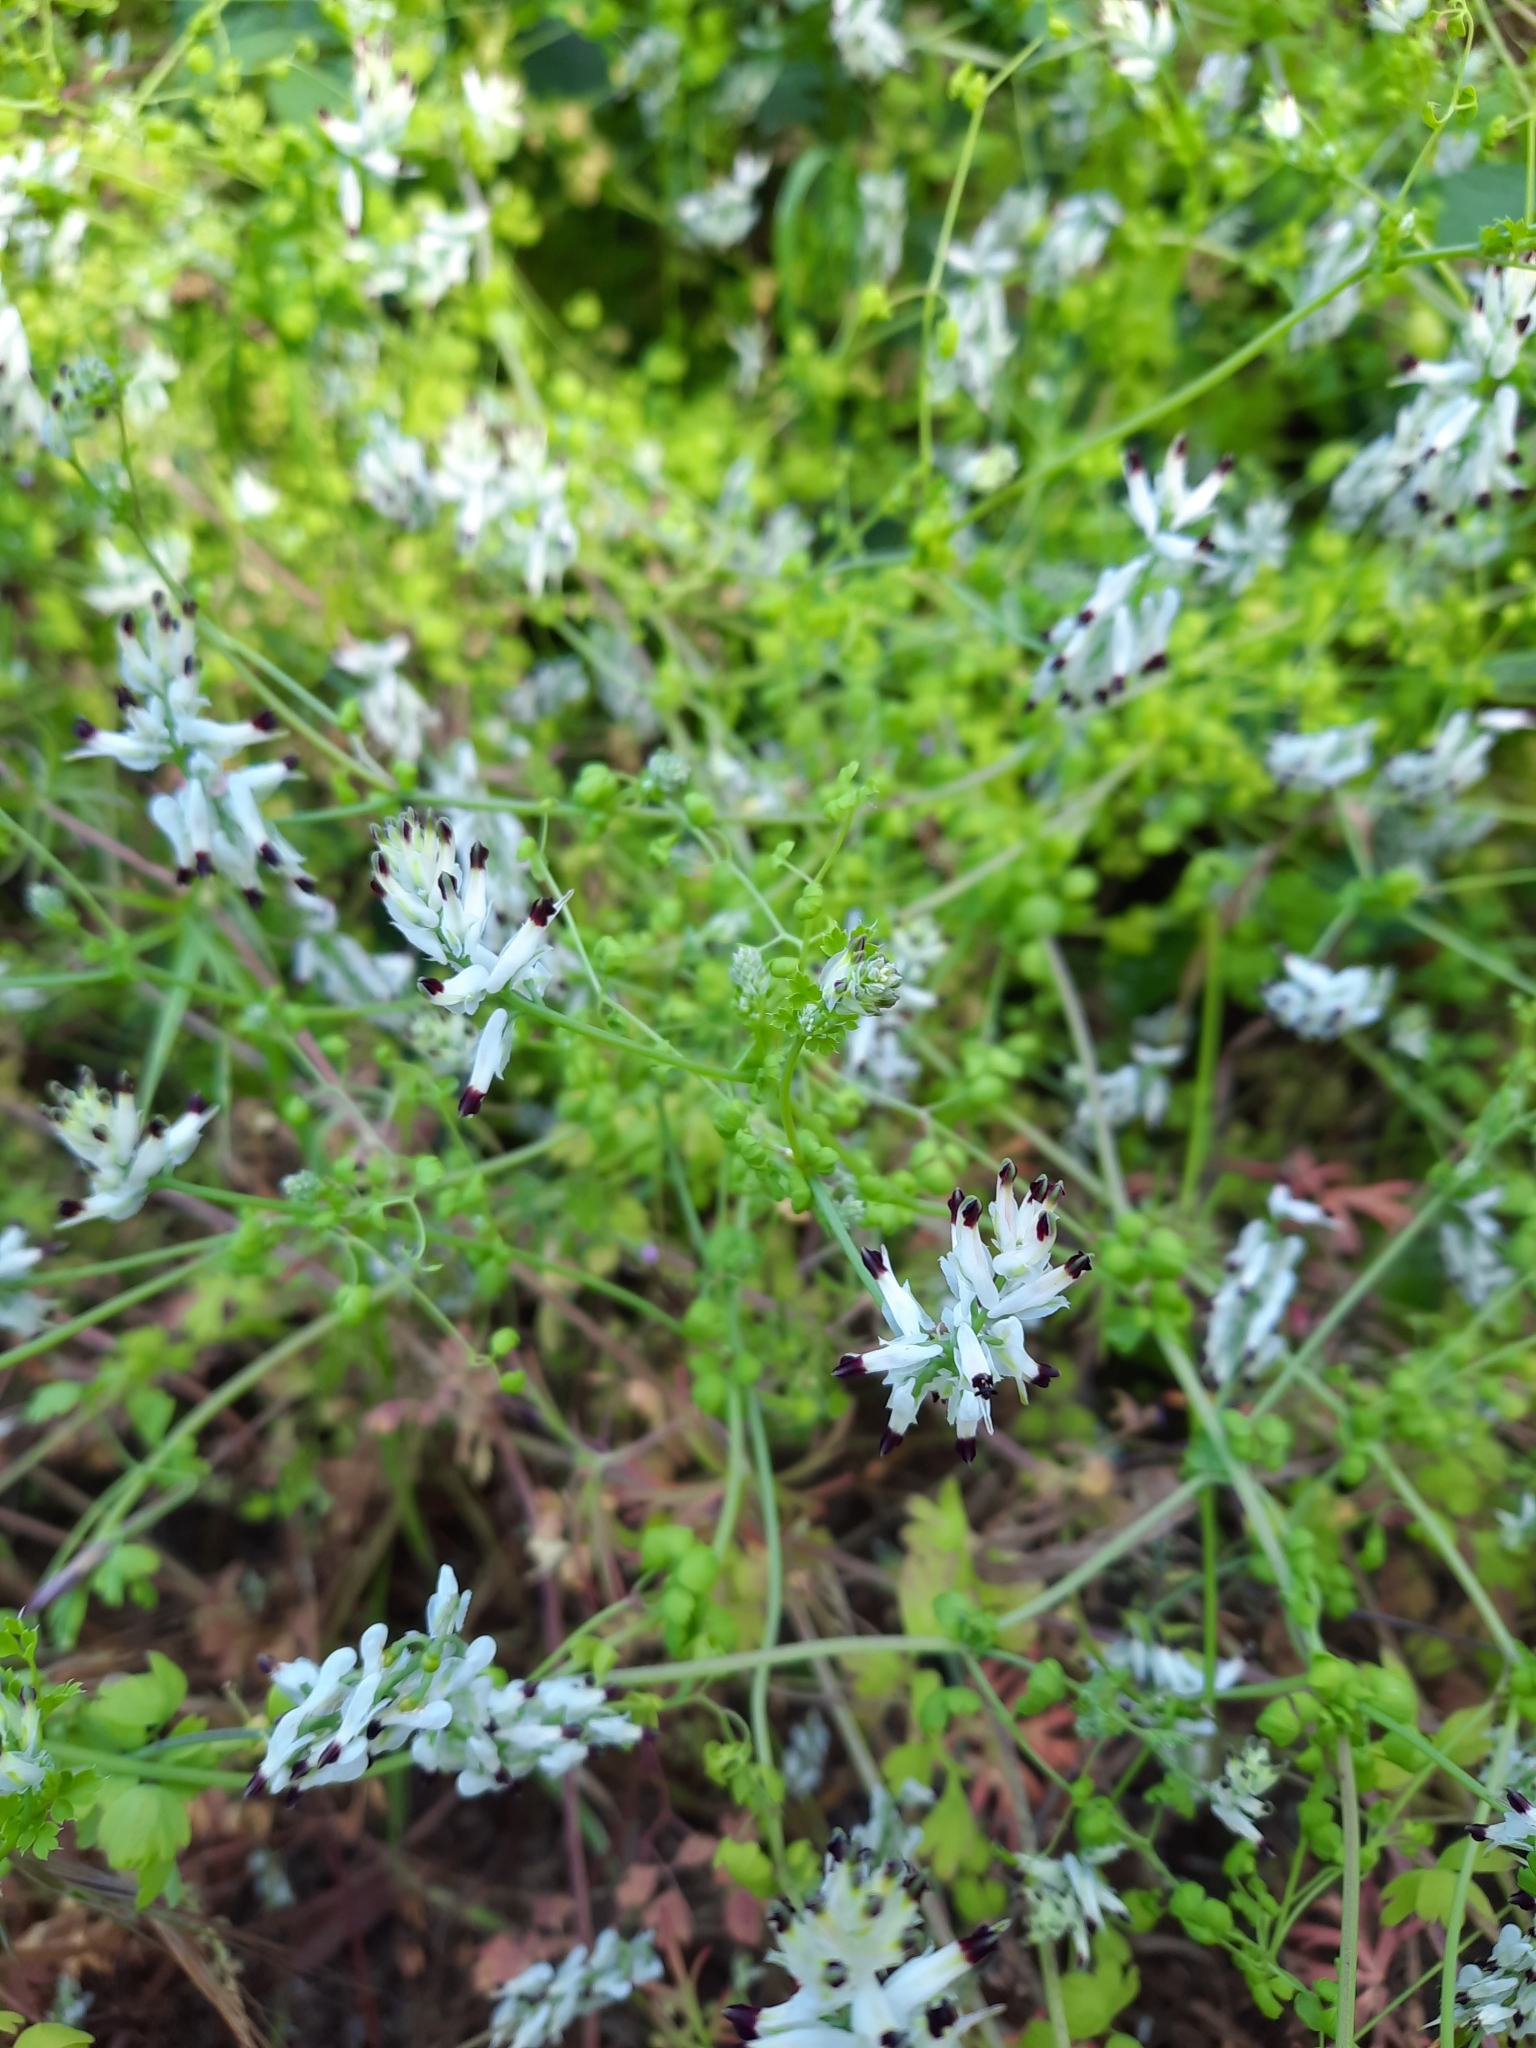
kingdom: Plantae
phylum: Tracheophyta
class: Magnoliopsida
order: Ranunculales
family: Papaveraceae
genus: Fumaria
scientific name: Fumaria capreolata
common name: White ramping-fumitory
